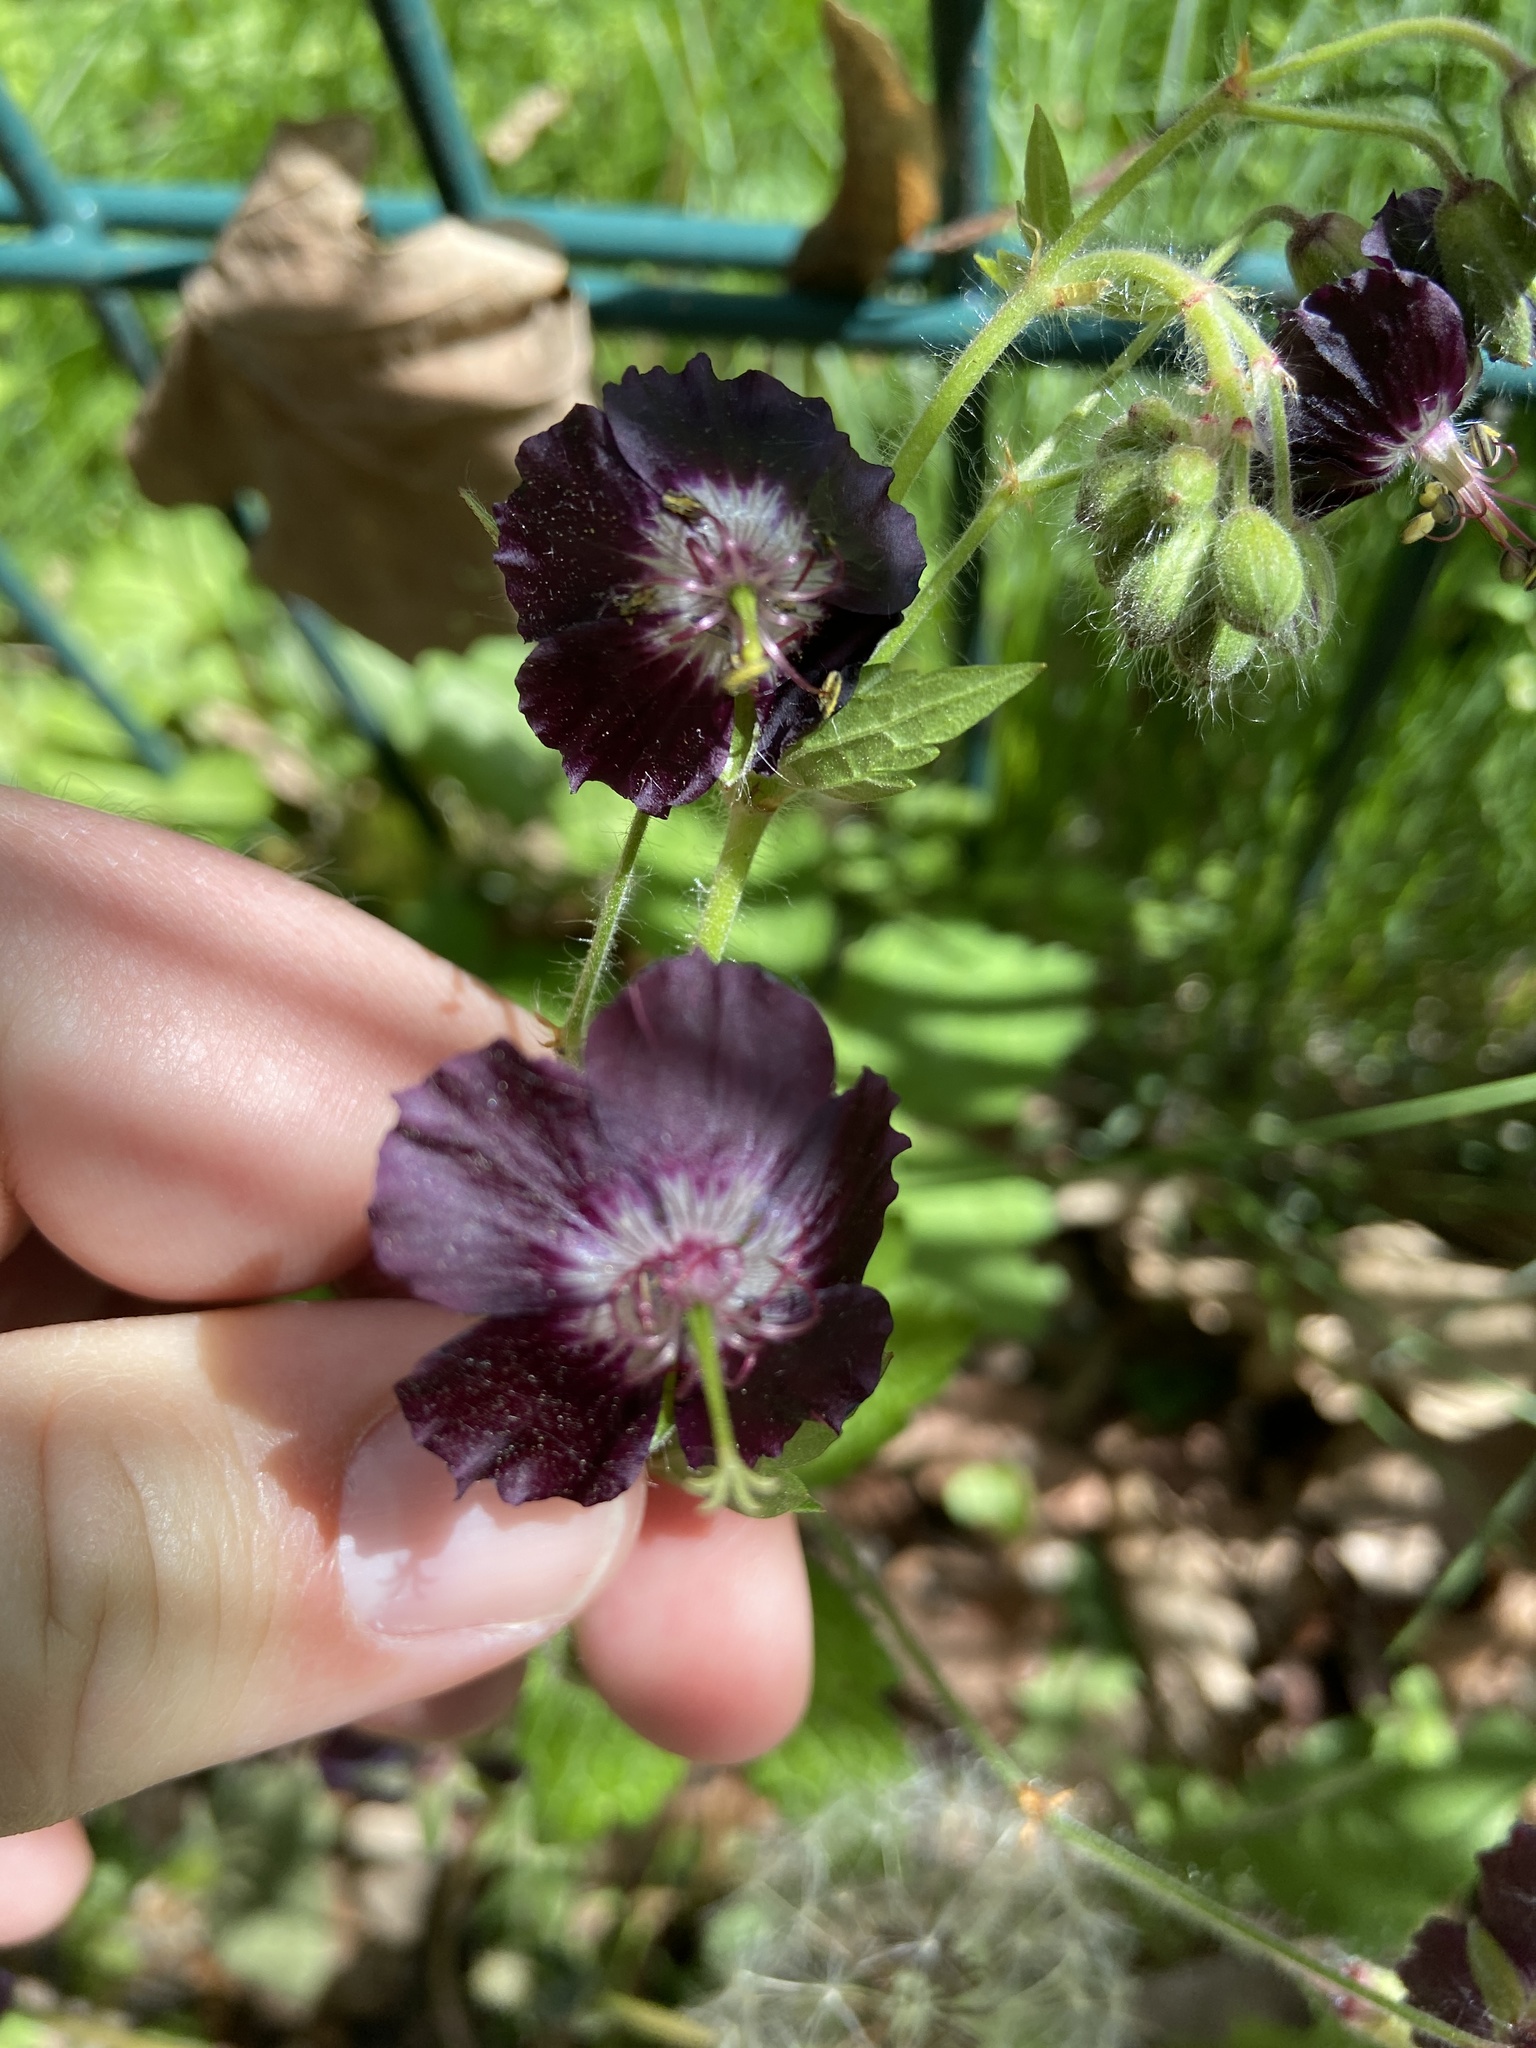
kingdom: Plantae
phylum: Tracheophyta
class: Magnoliopsida
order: Geraniales
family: Geraniaceae
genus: Geranium
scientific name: Geranium phaeum
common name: Dusky crane's-bill
